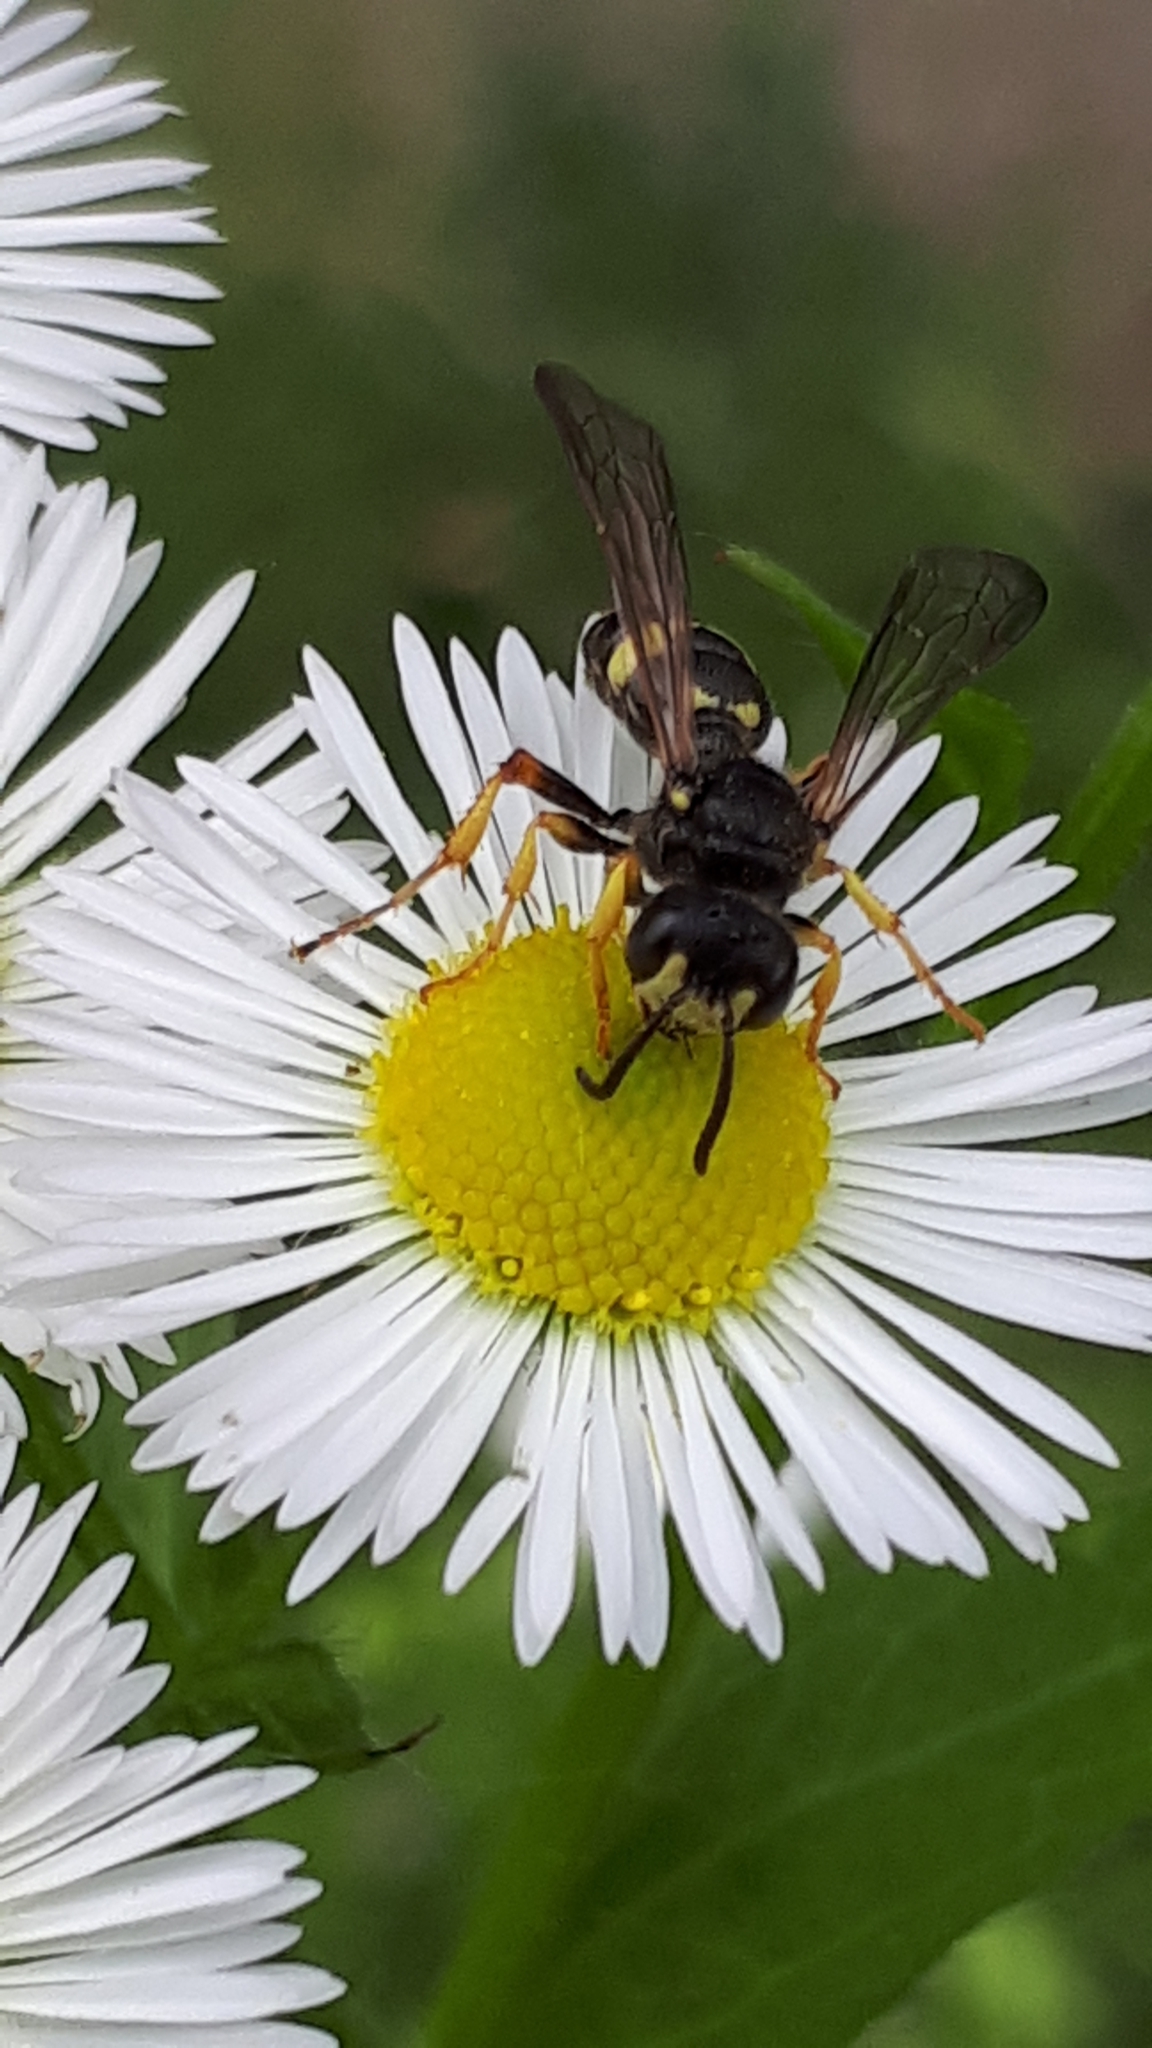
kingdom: Animalia
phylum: Arthropoda
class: Insecta
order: Hymenoptera
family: Crabronidae
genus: Cerceris
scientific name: Cerceris rybyensis
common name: Ornate tailed digger wasp
